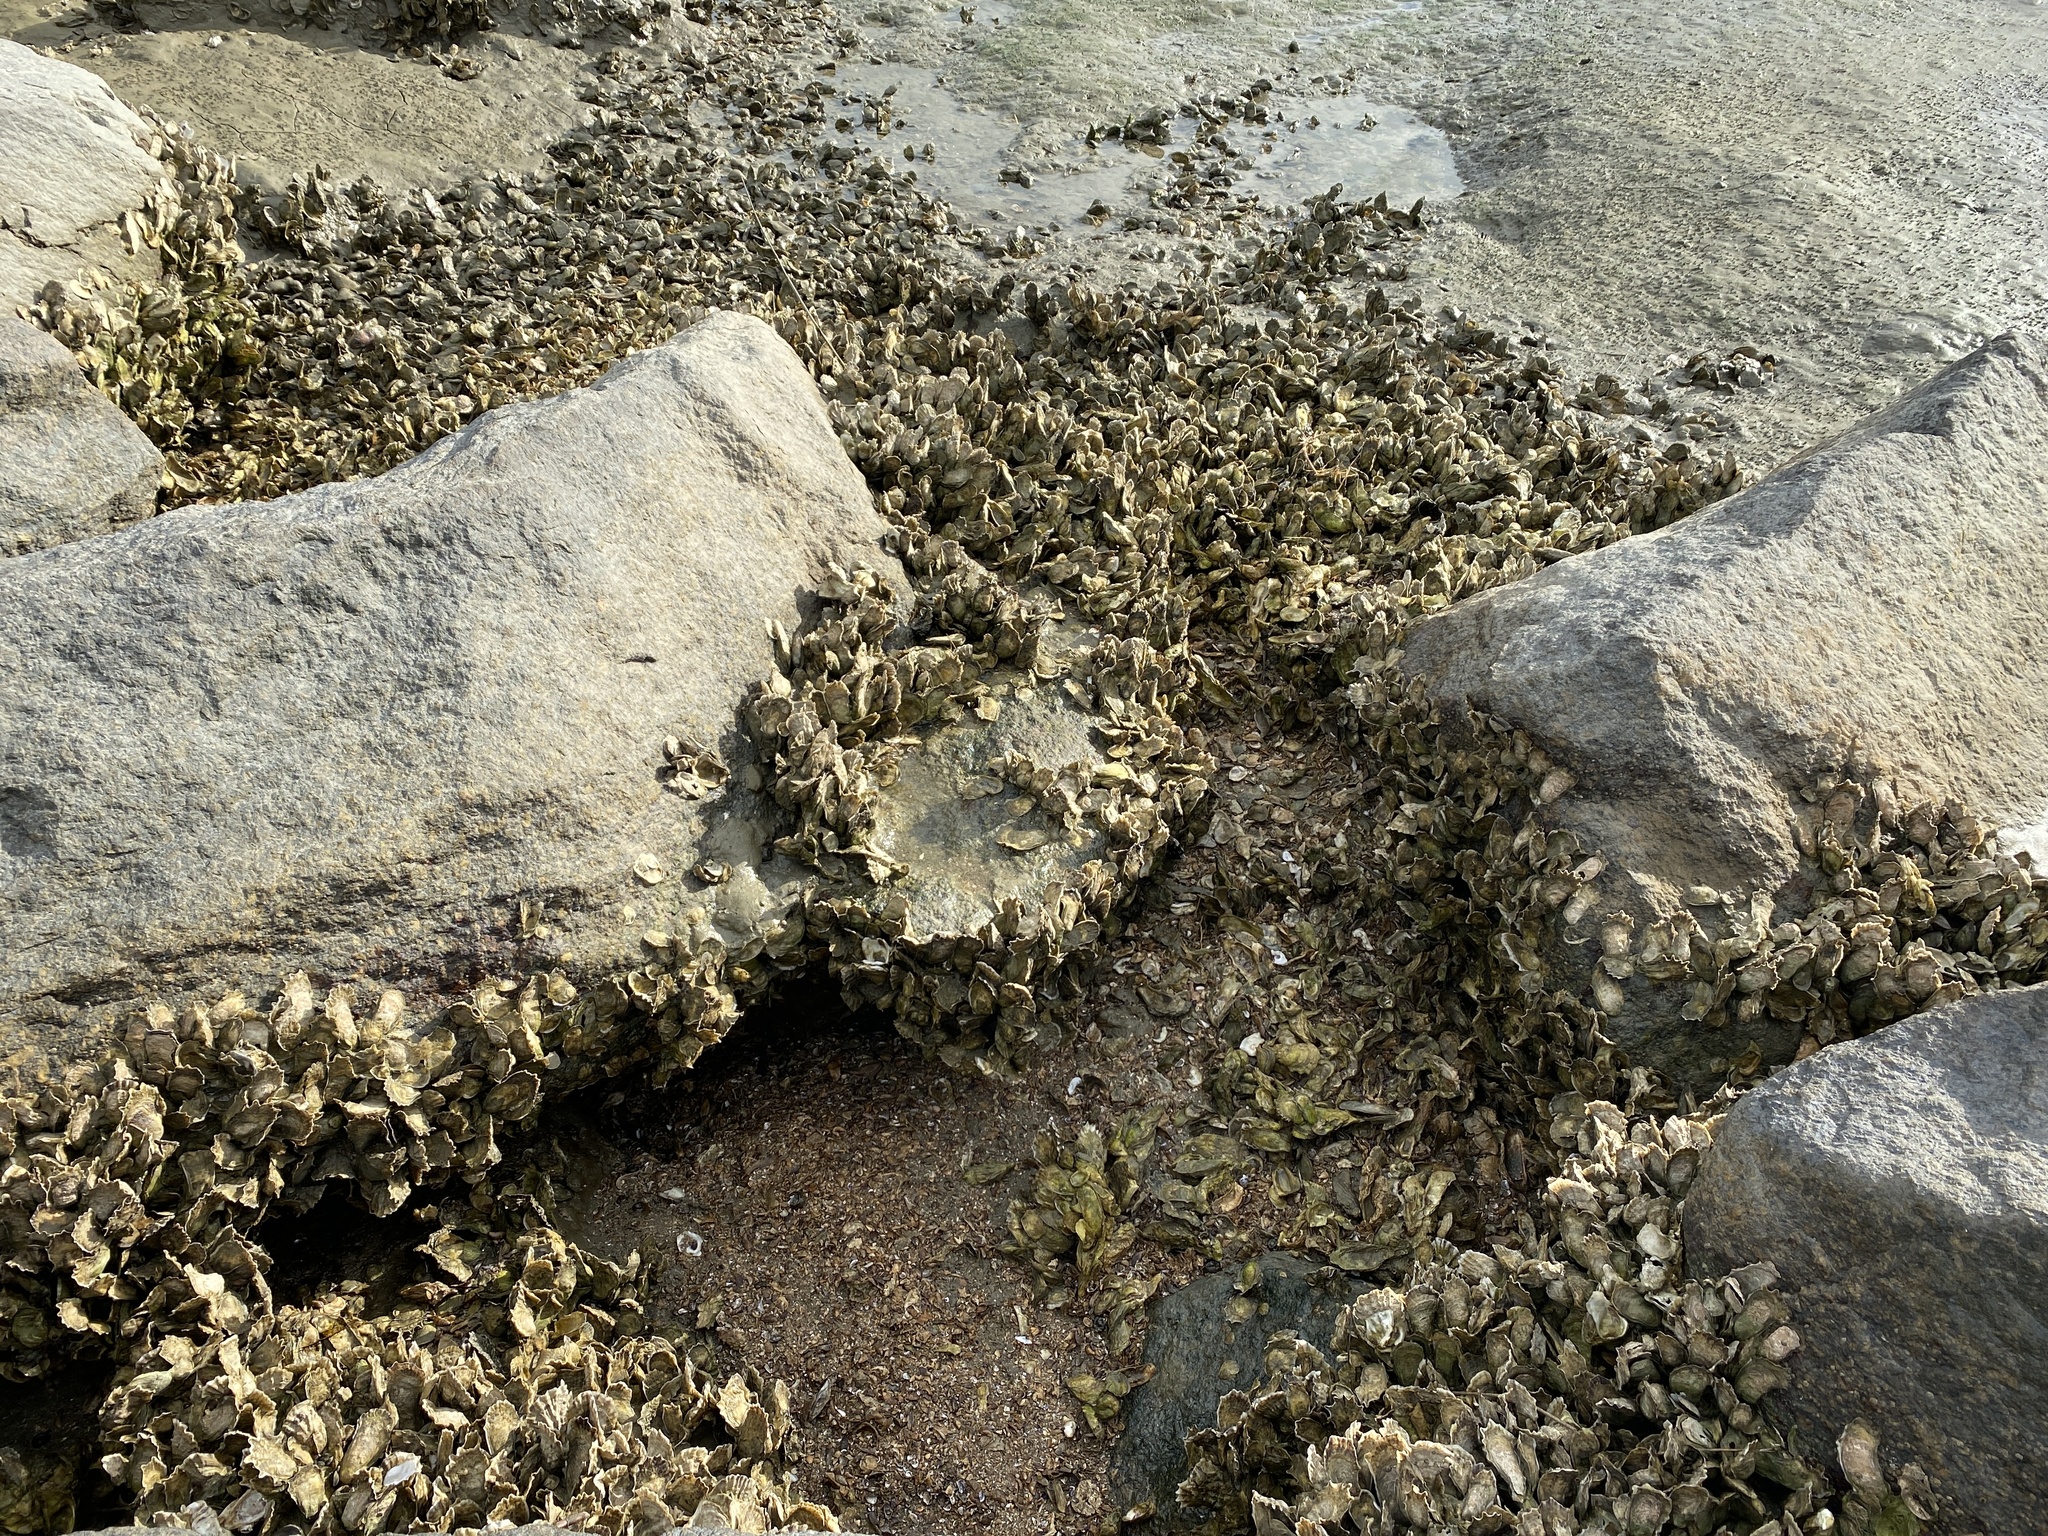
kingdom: Animalia
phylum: Mollusca
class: Bivalvia
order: Ostreida
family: Ostreidae
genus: Crassostrea
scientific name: Crassostrea virginica
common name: American oyster
